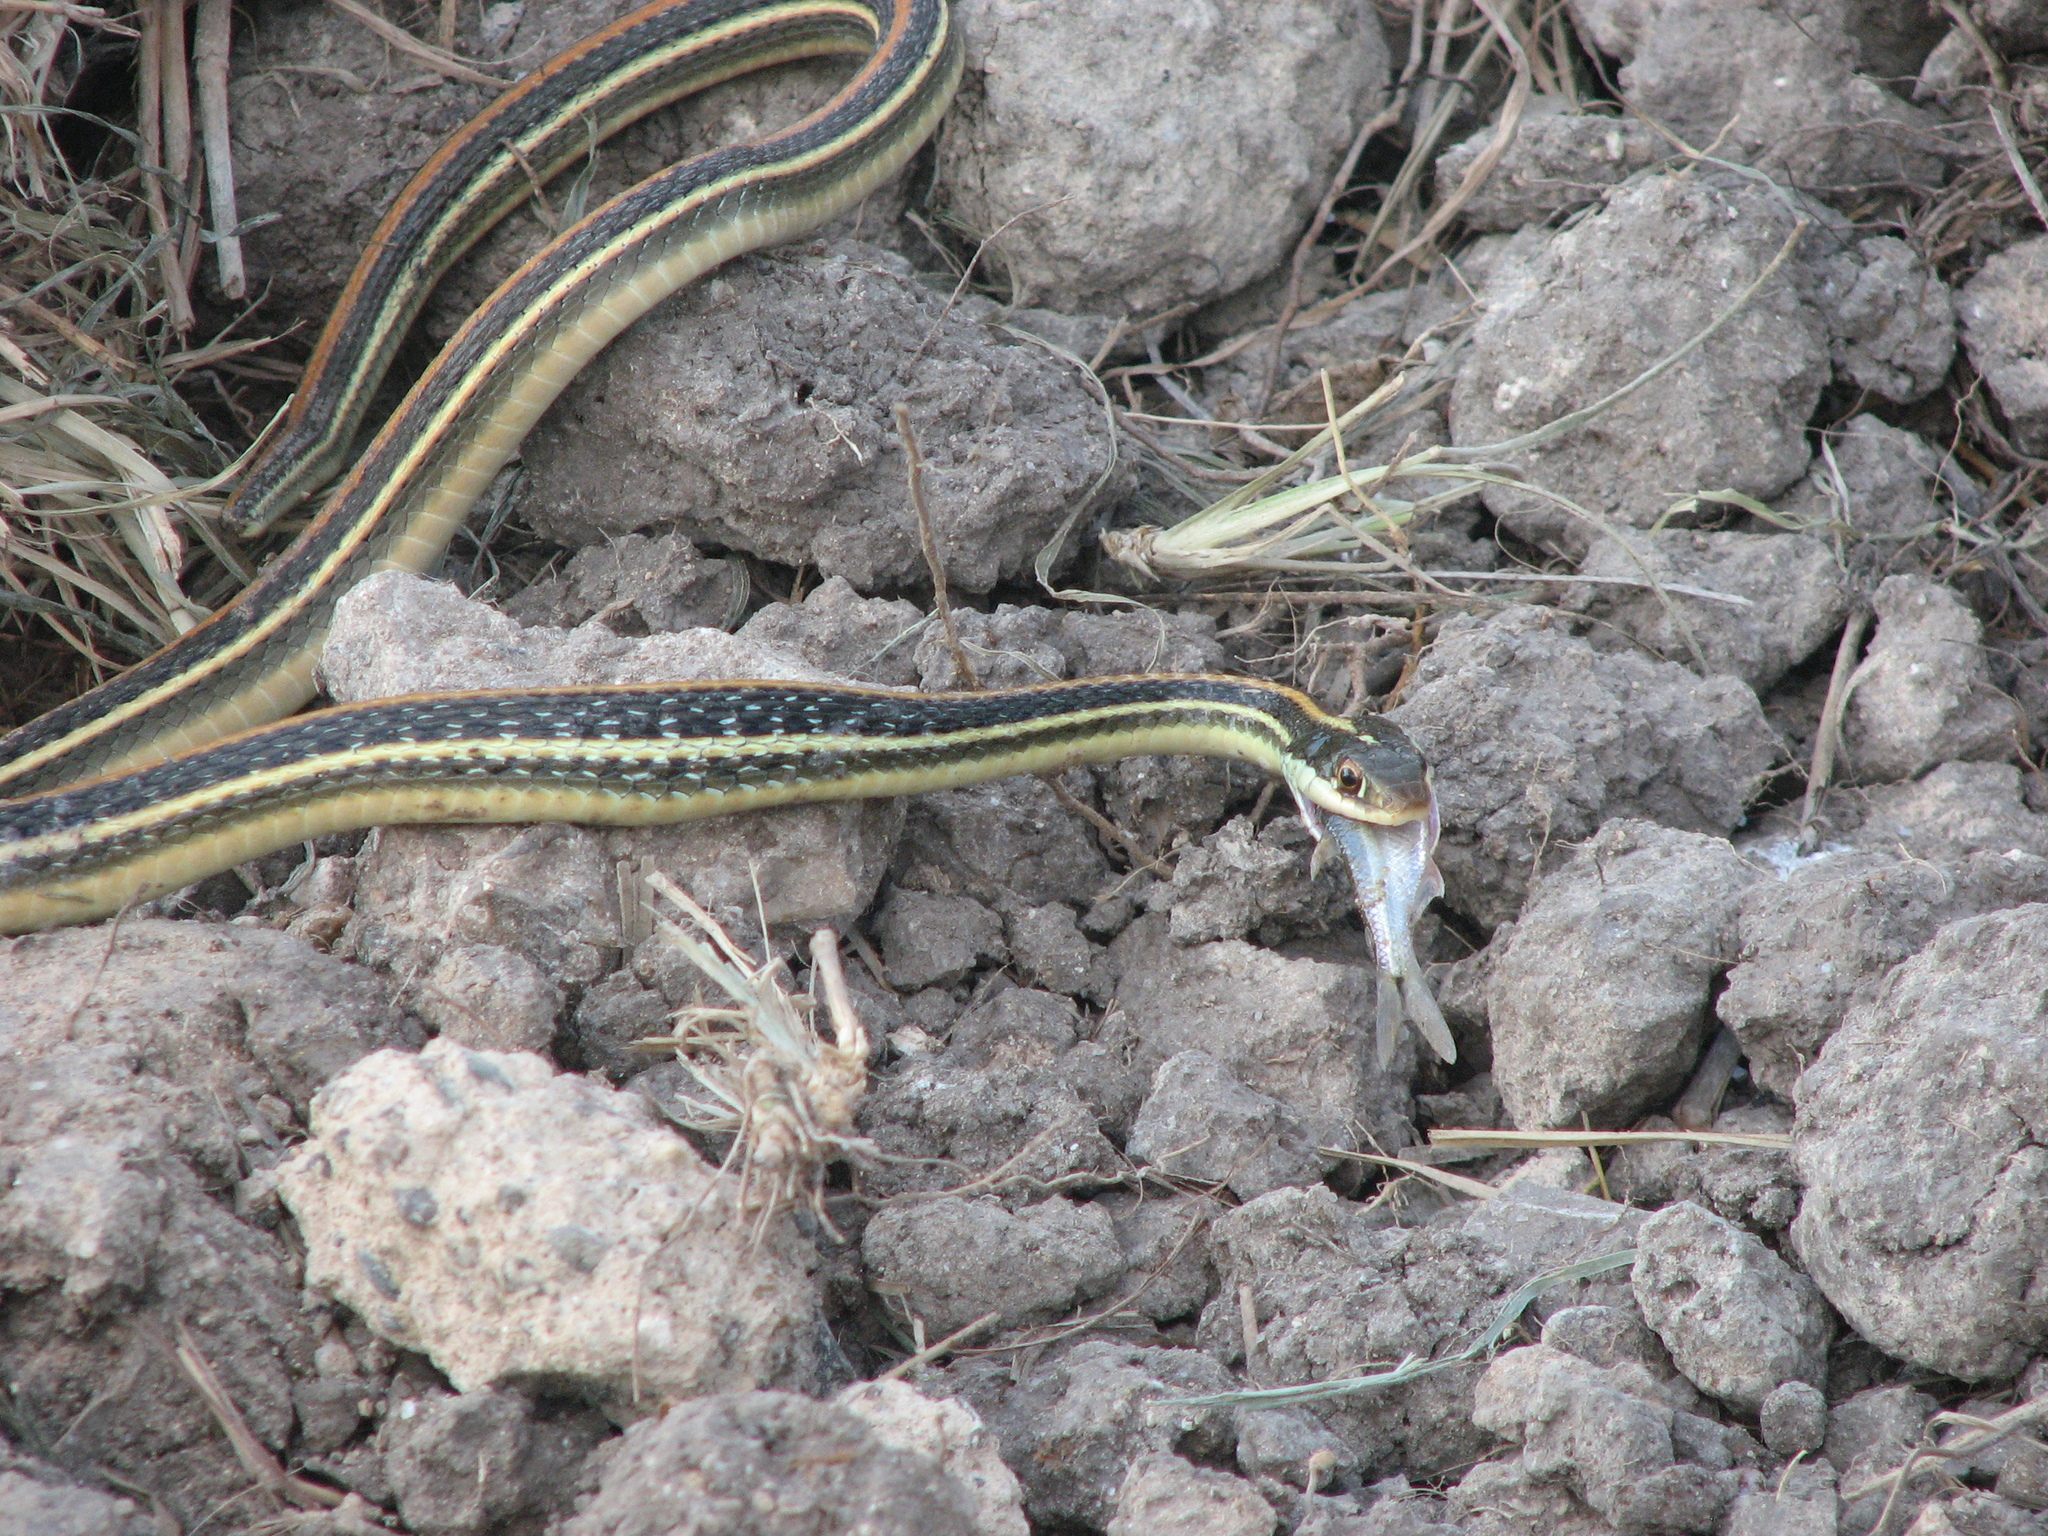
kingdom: Animalia
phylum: Chordata
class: Squamata
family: Colubridae
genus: Thamnophis
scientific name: Thamnophis proximus
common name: Western ribbon snake
